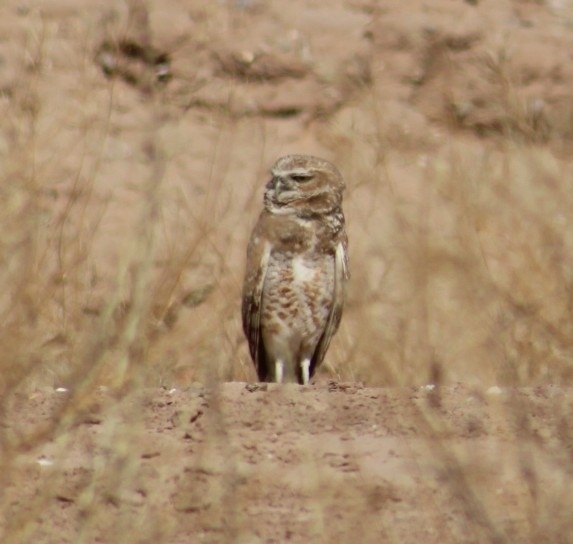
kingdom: Animalia
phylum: Chordata
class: Aves
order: Strigiformes
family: Strigidae
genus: Athene
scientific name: Athene cunicularia
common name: Burrowing owl
